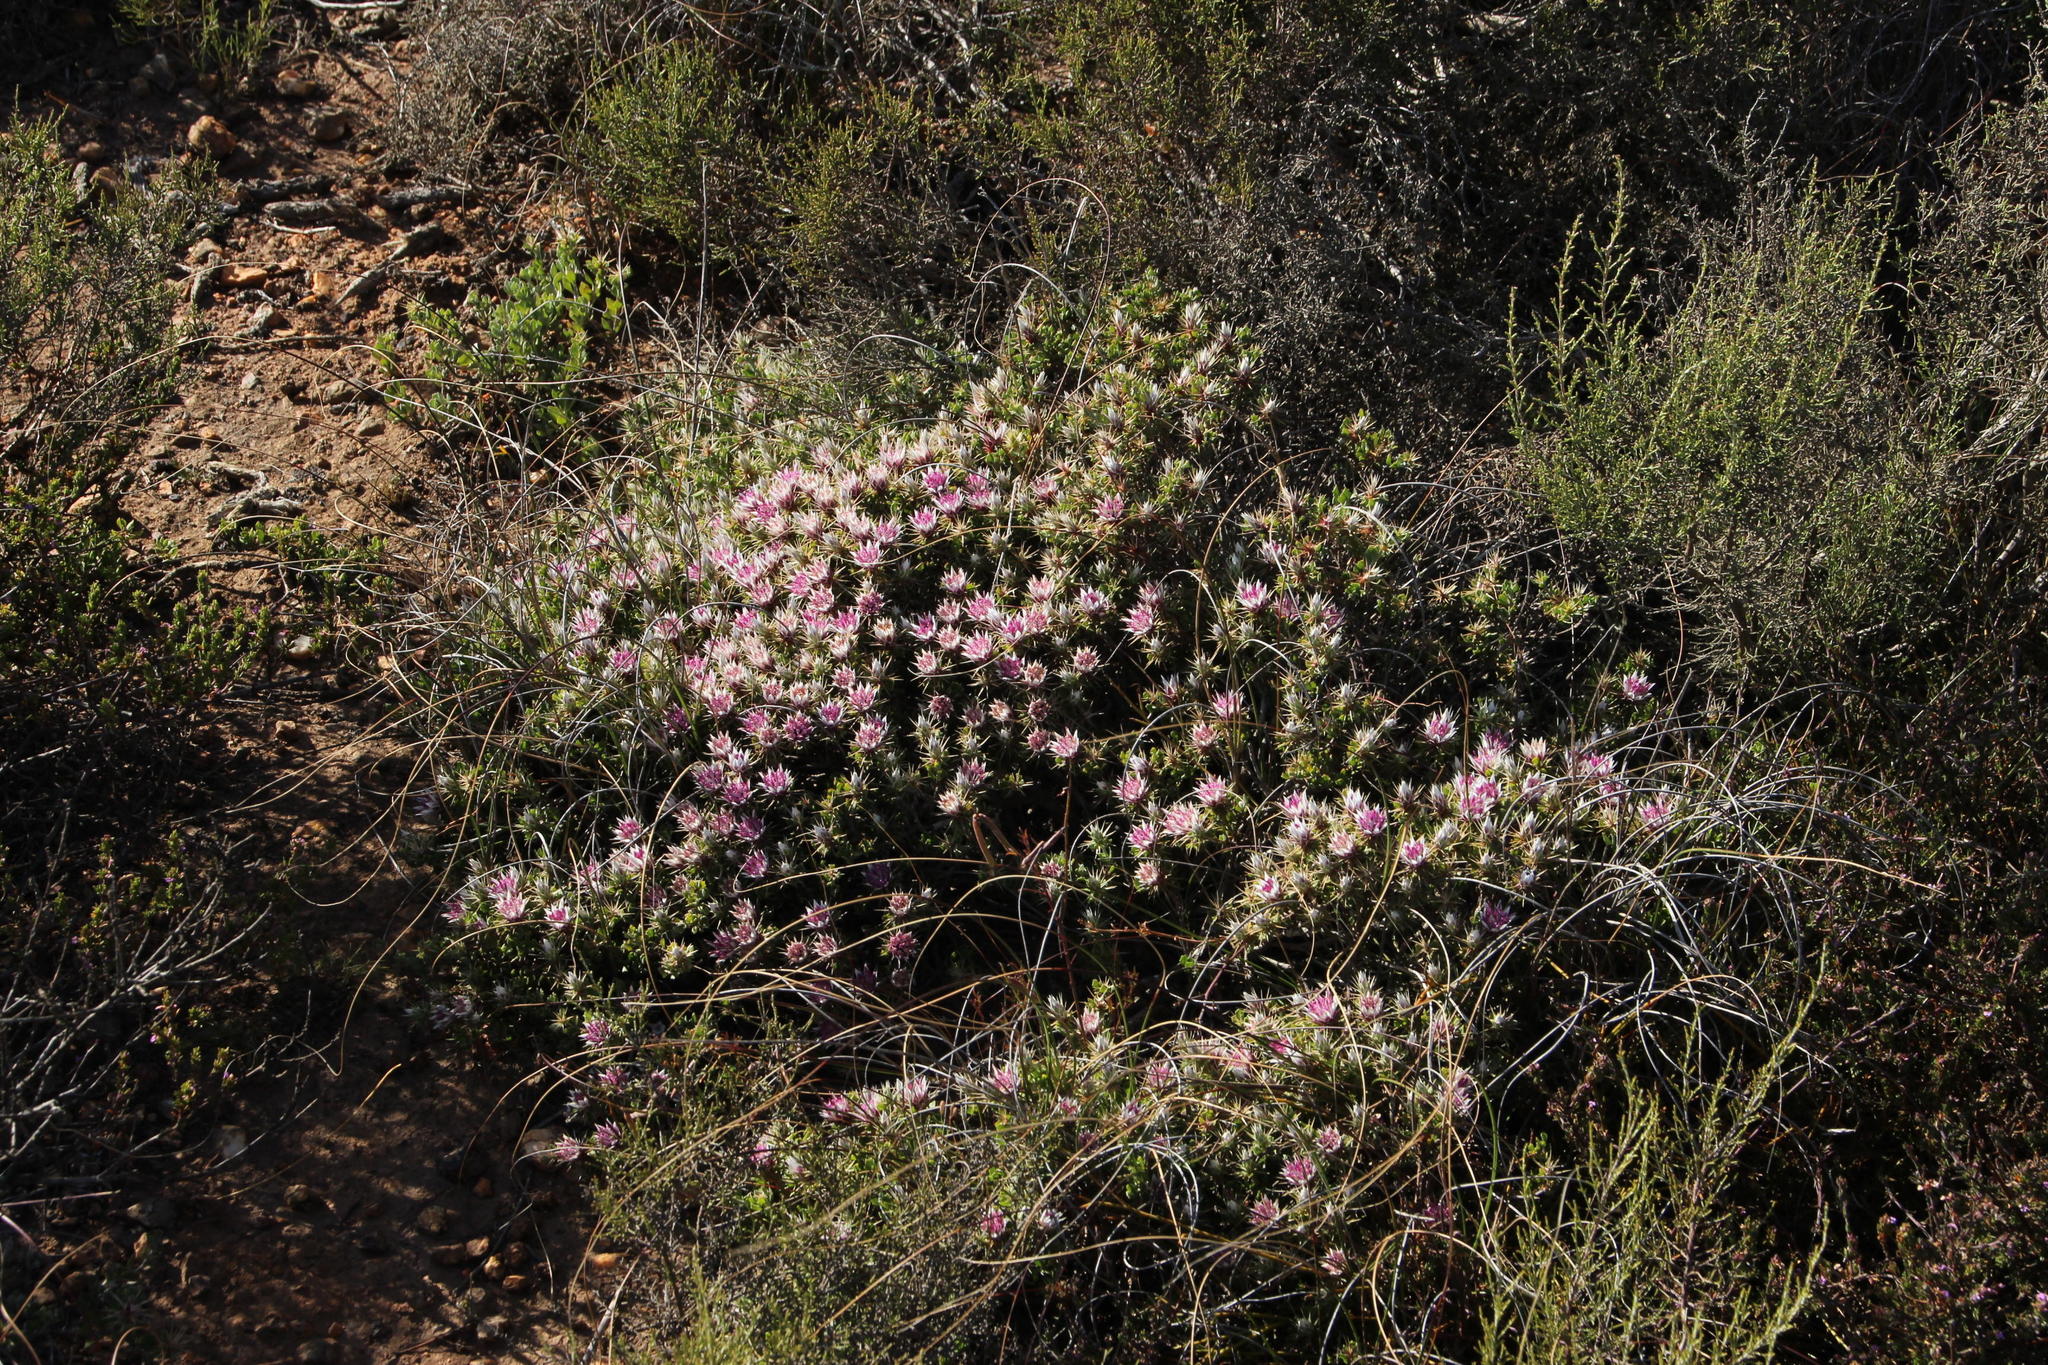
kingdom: Plantae
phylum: Tracheophyta
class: Magnoliopsida
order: Asterales
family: Asteraceae
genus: Macledium
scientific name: Macledium spinosum
